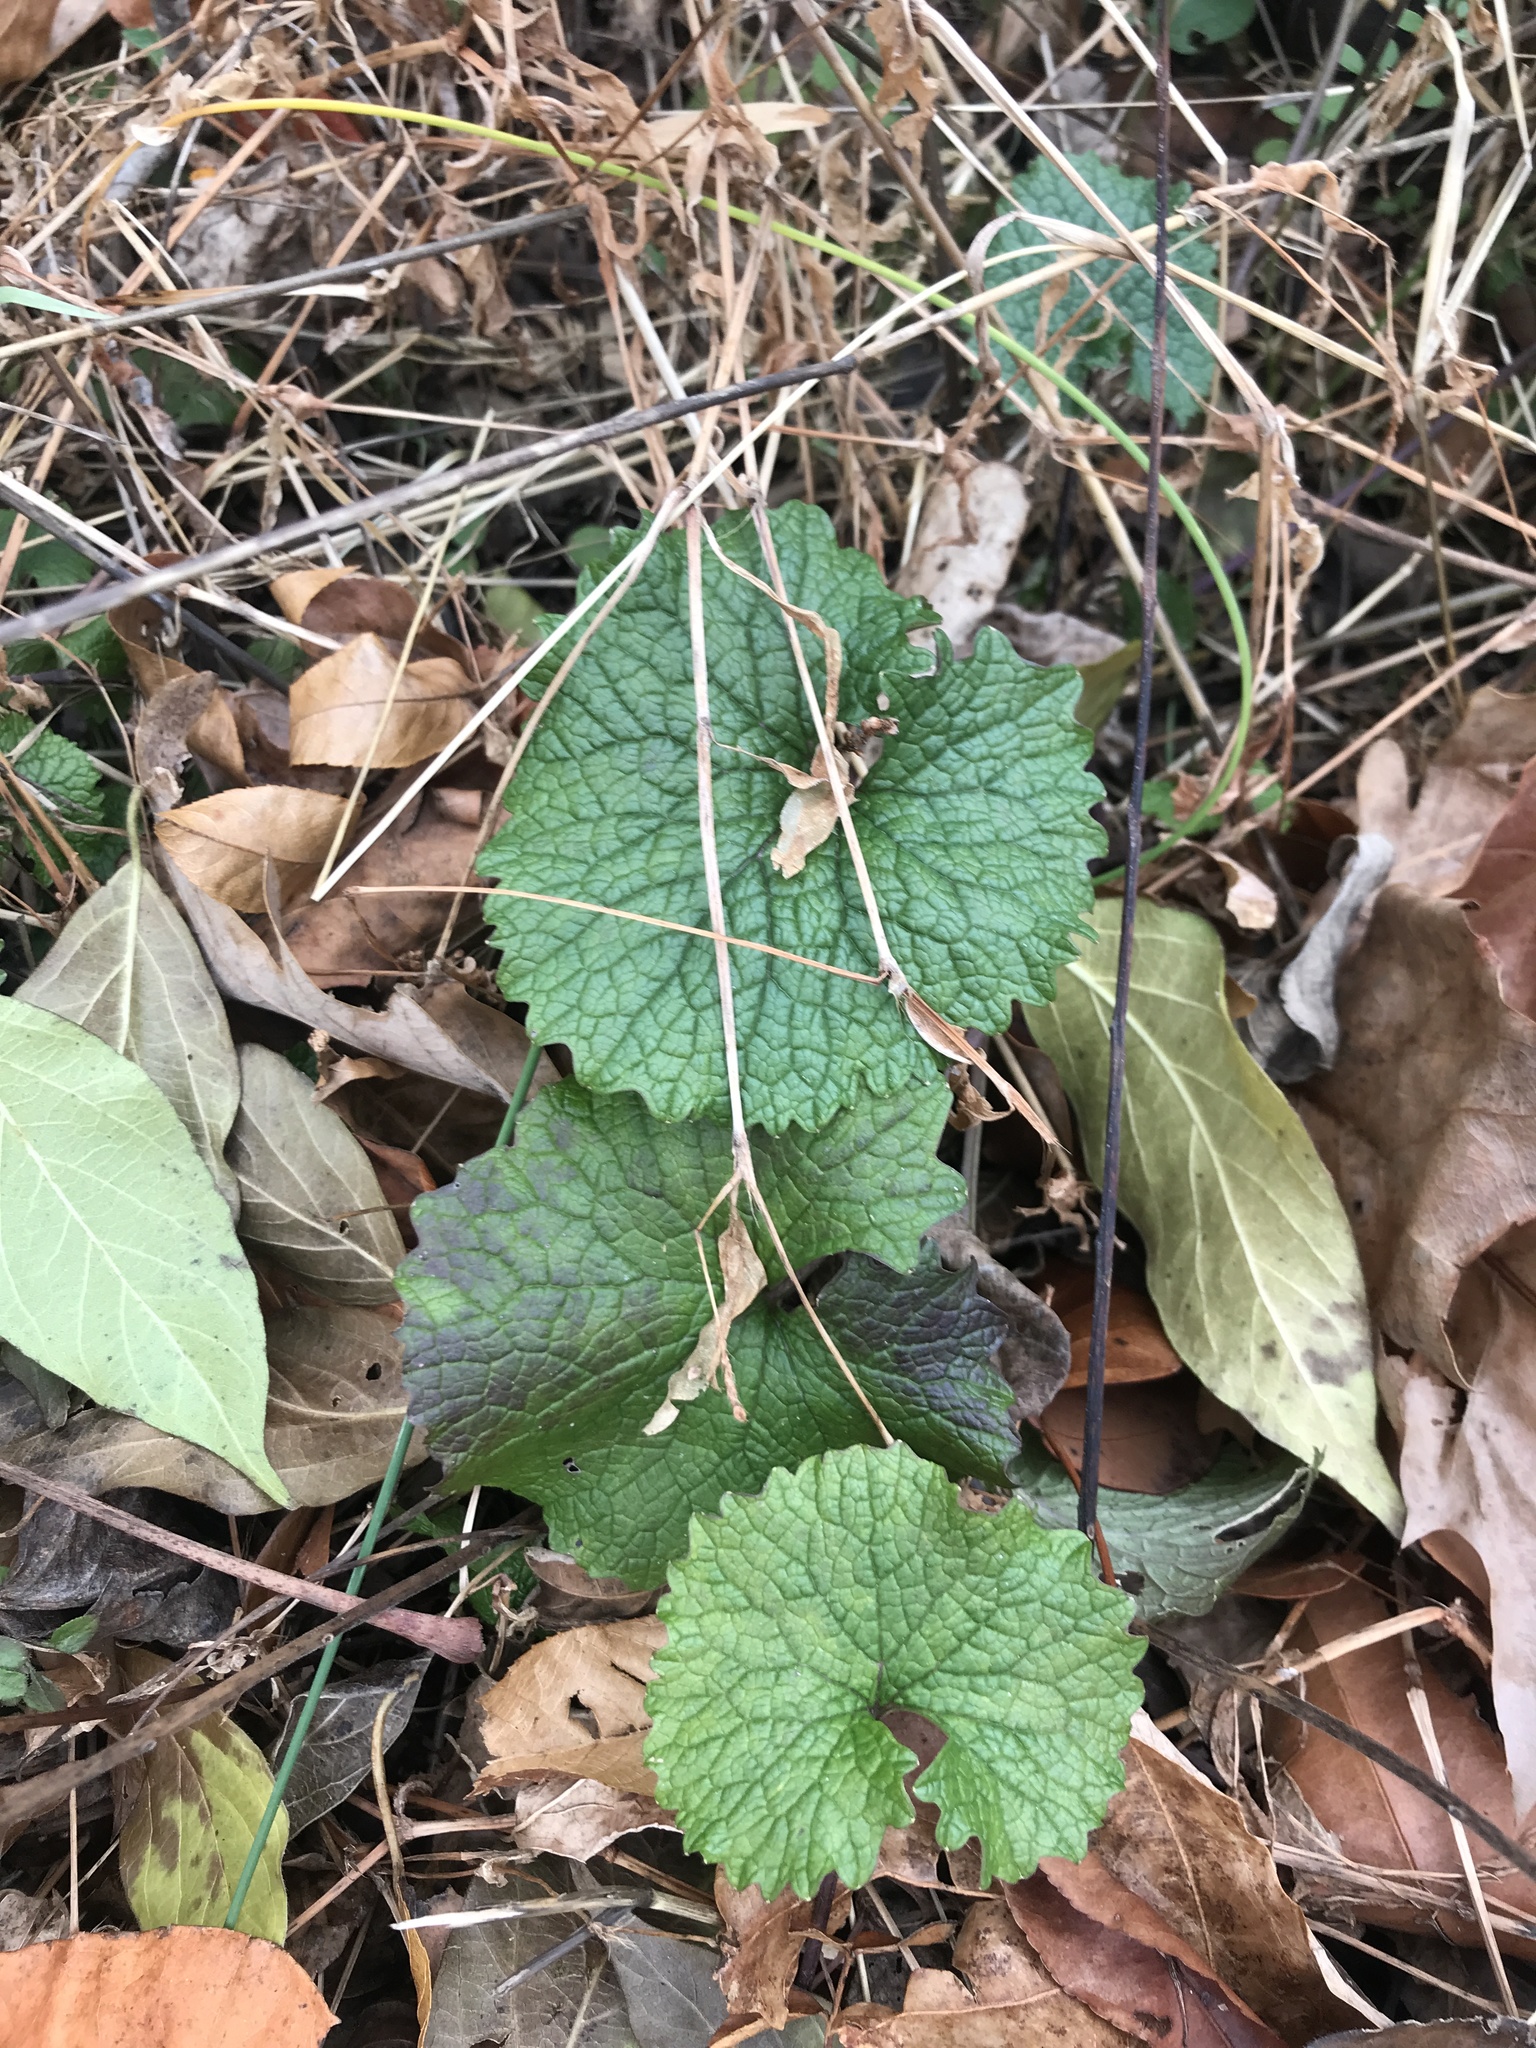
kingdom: Plantae
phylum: Tracheophyta
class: Magnoliopsida
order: Brassicales
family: Brassicaceae
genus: Alliaria
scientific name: Alliaria petiolata
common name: Garlic mustard
